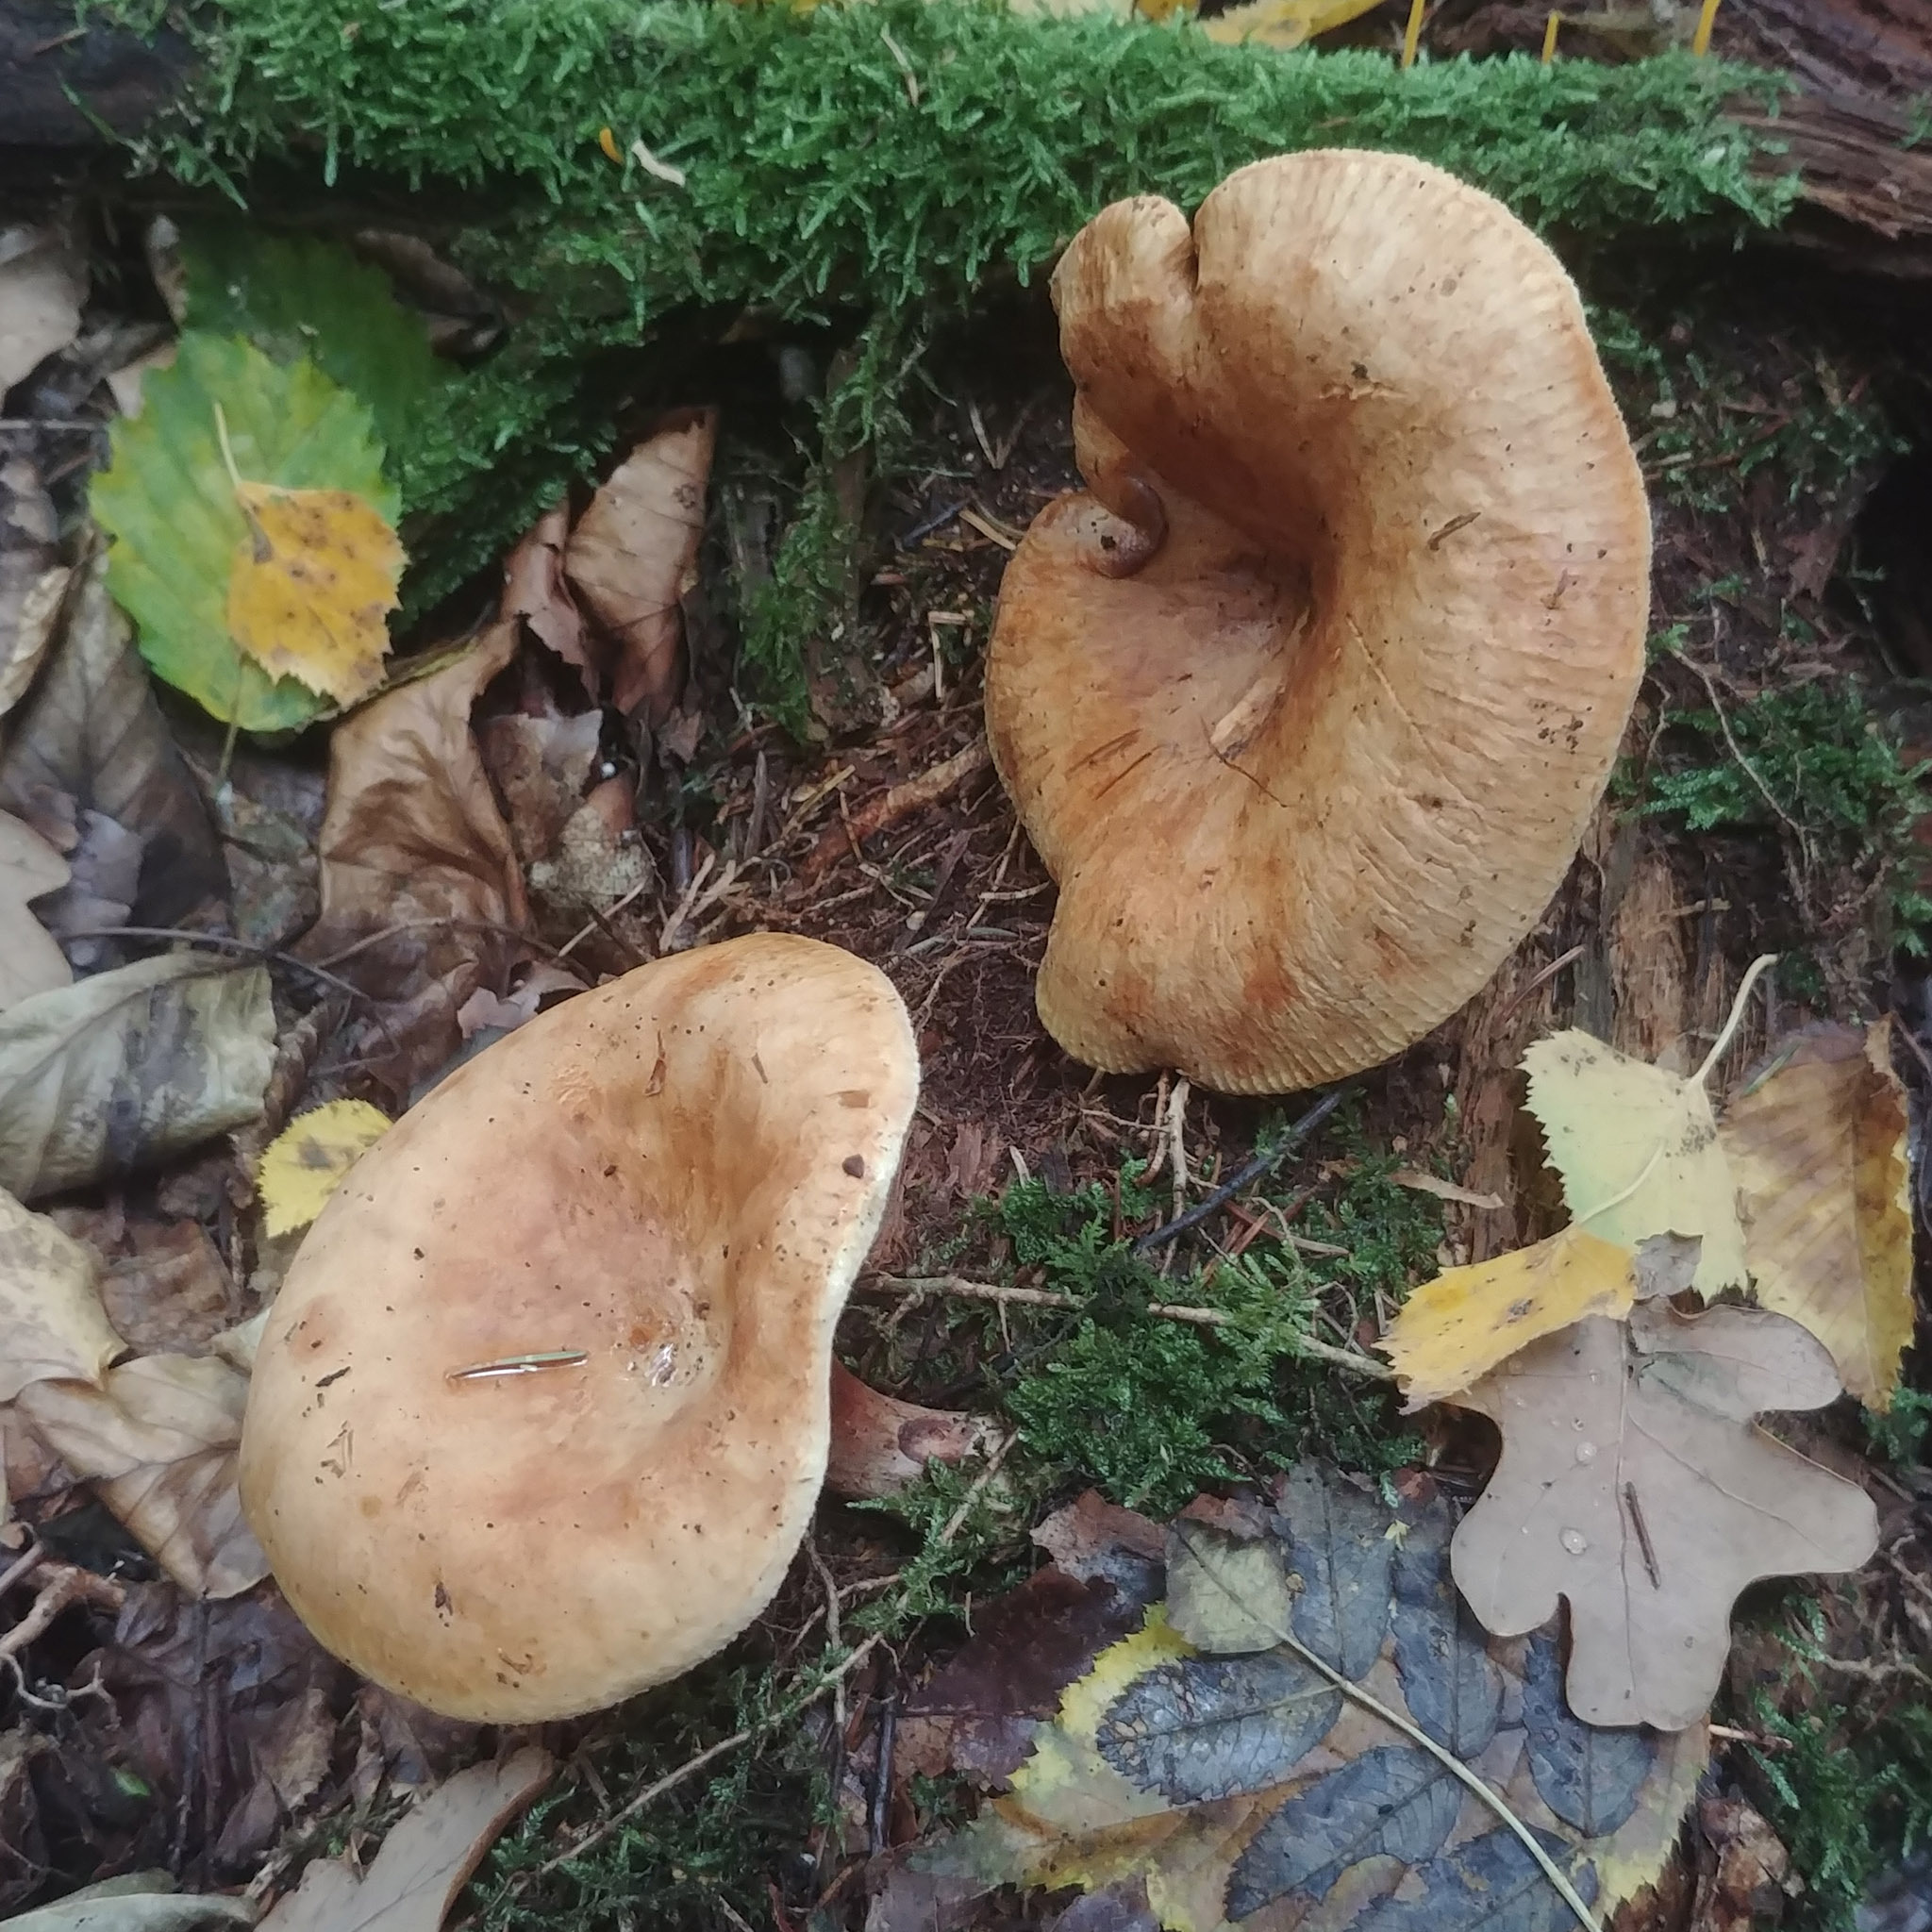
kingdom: Fungi
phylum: Basidiomycota
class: Agaricomycetes
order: Boletales
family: Paxillaceae
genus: Paxillus
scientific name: Paxillus involutus
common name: Brown roll rim
